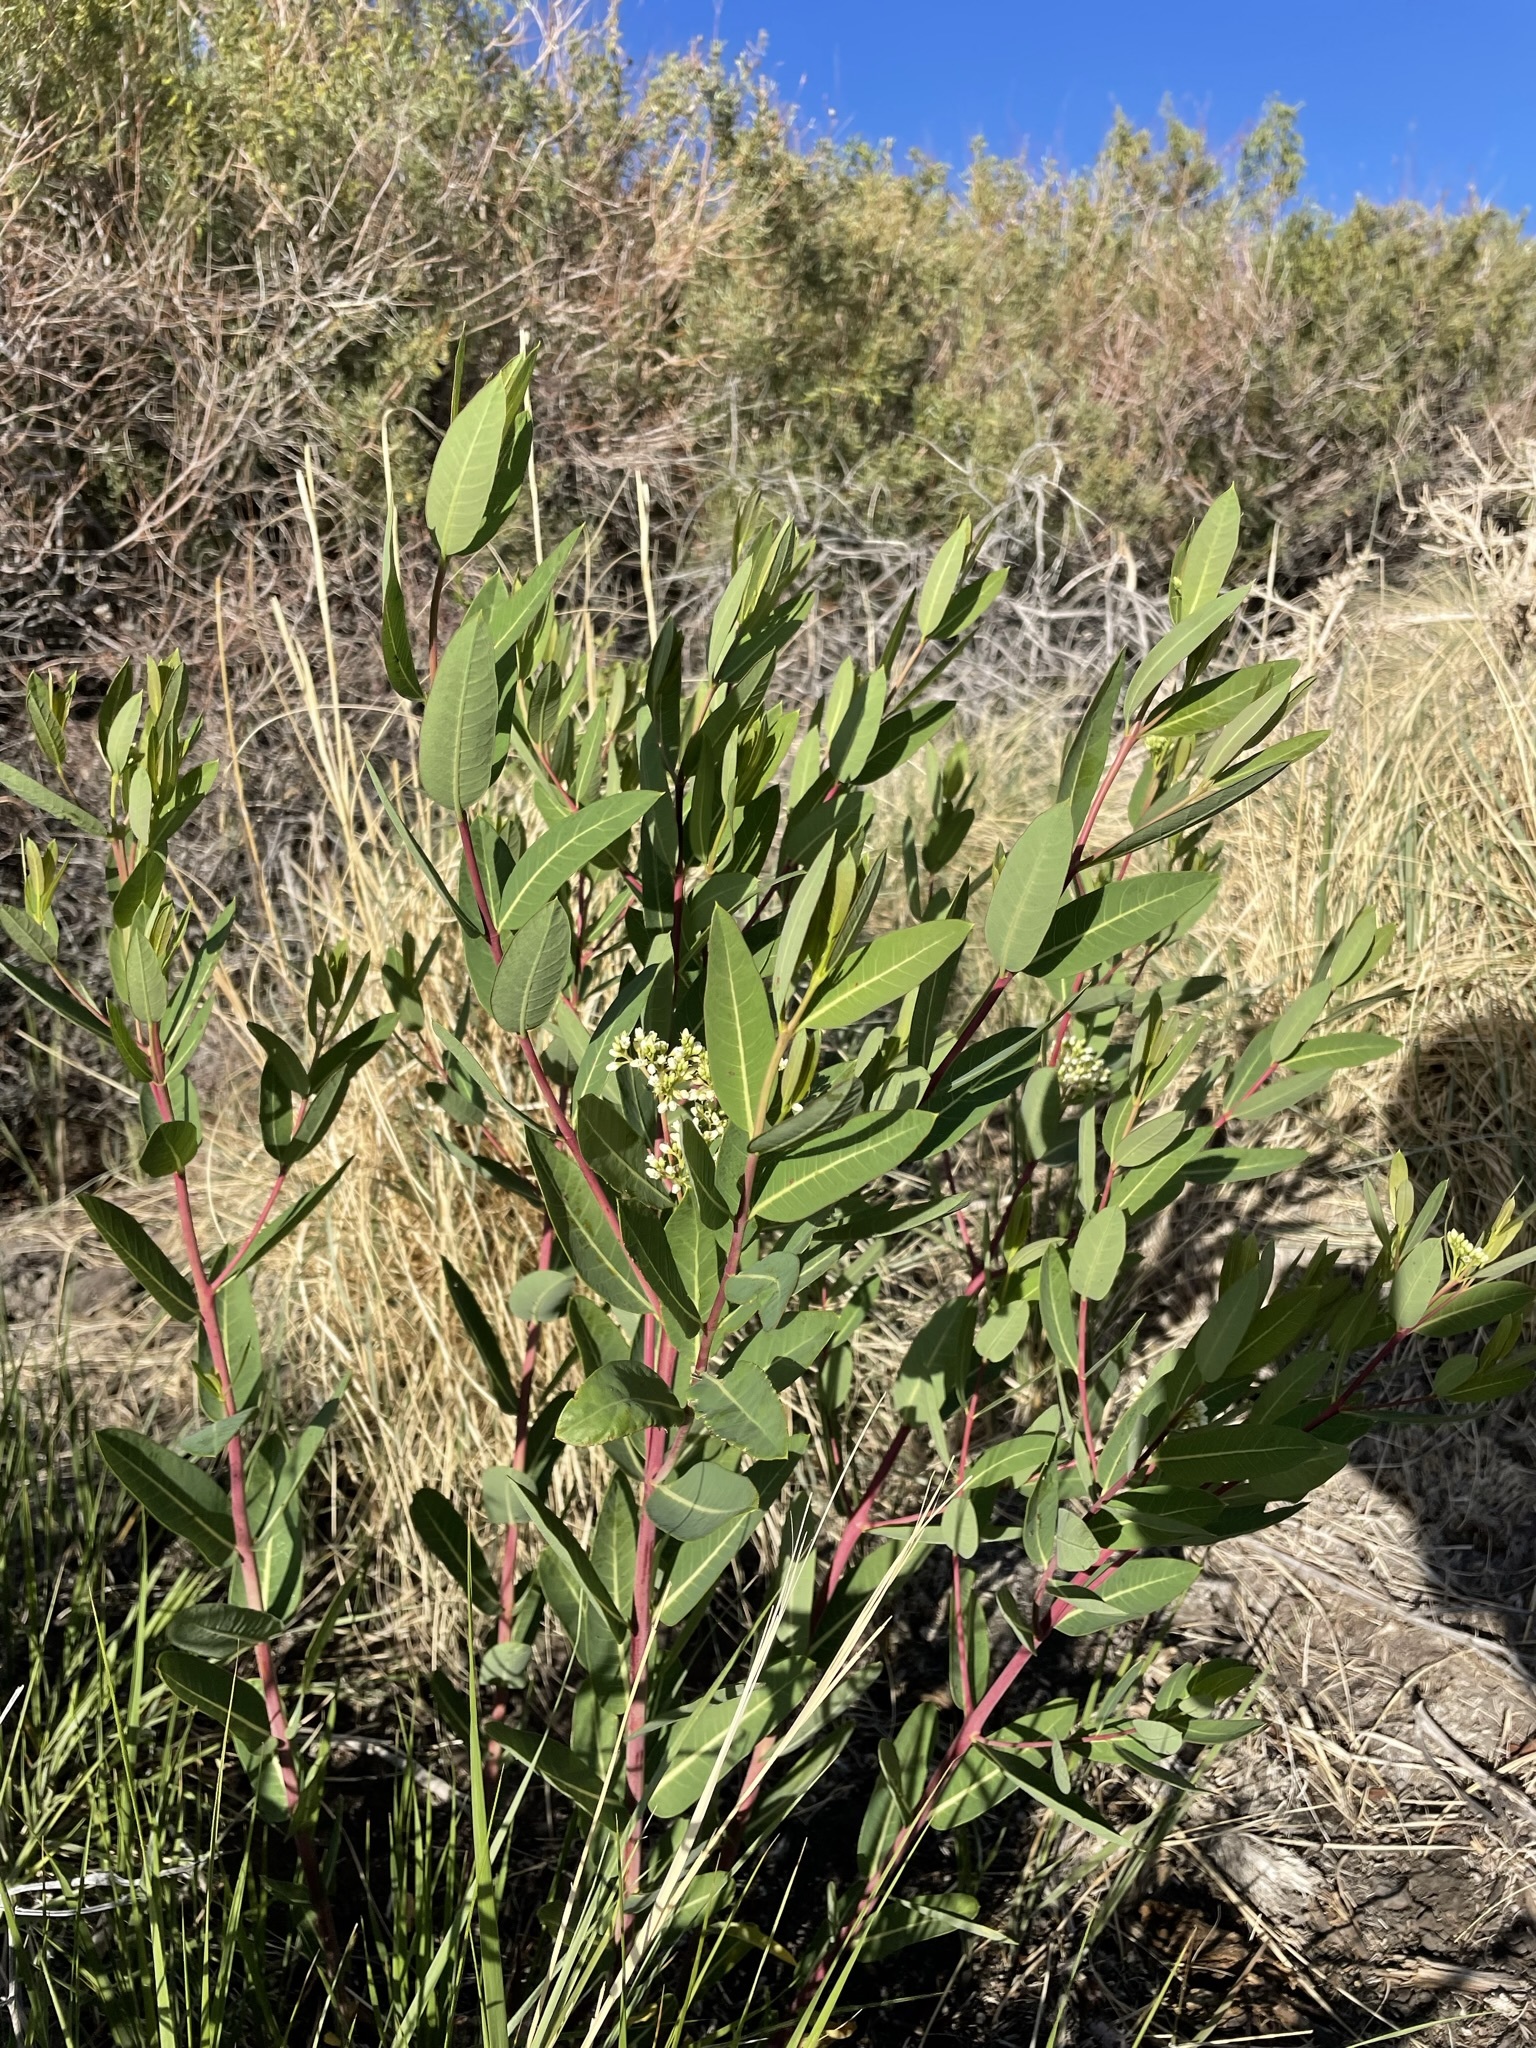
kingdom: Plantae
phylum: Tracheophyta
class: Magnoliopsida
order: Gentianales
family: Apocynaceae
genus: Apocynum
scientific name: Apocynum cannabinum
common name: Hemp dogbane
